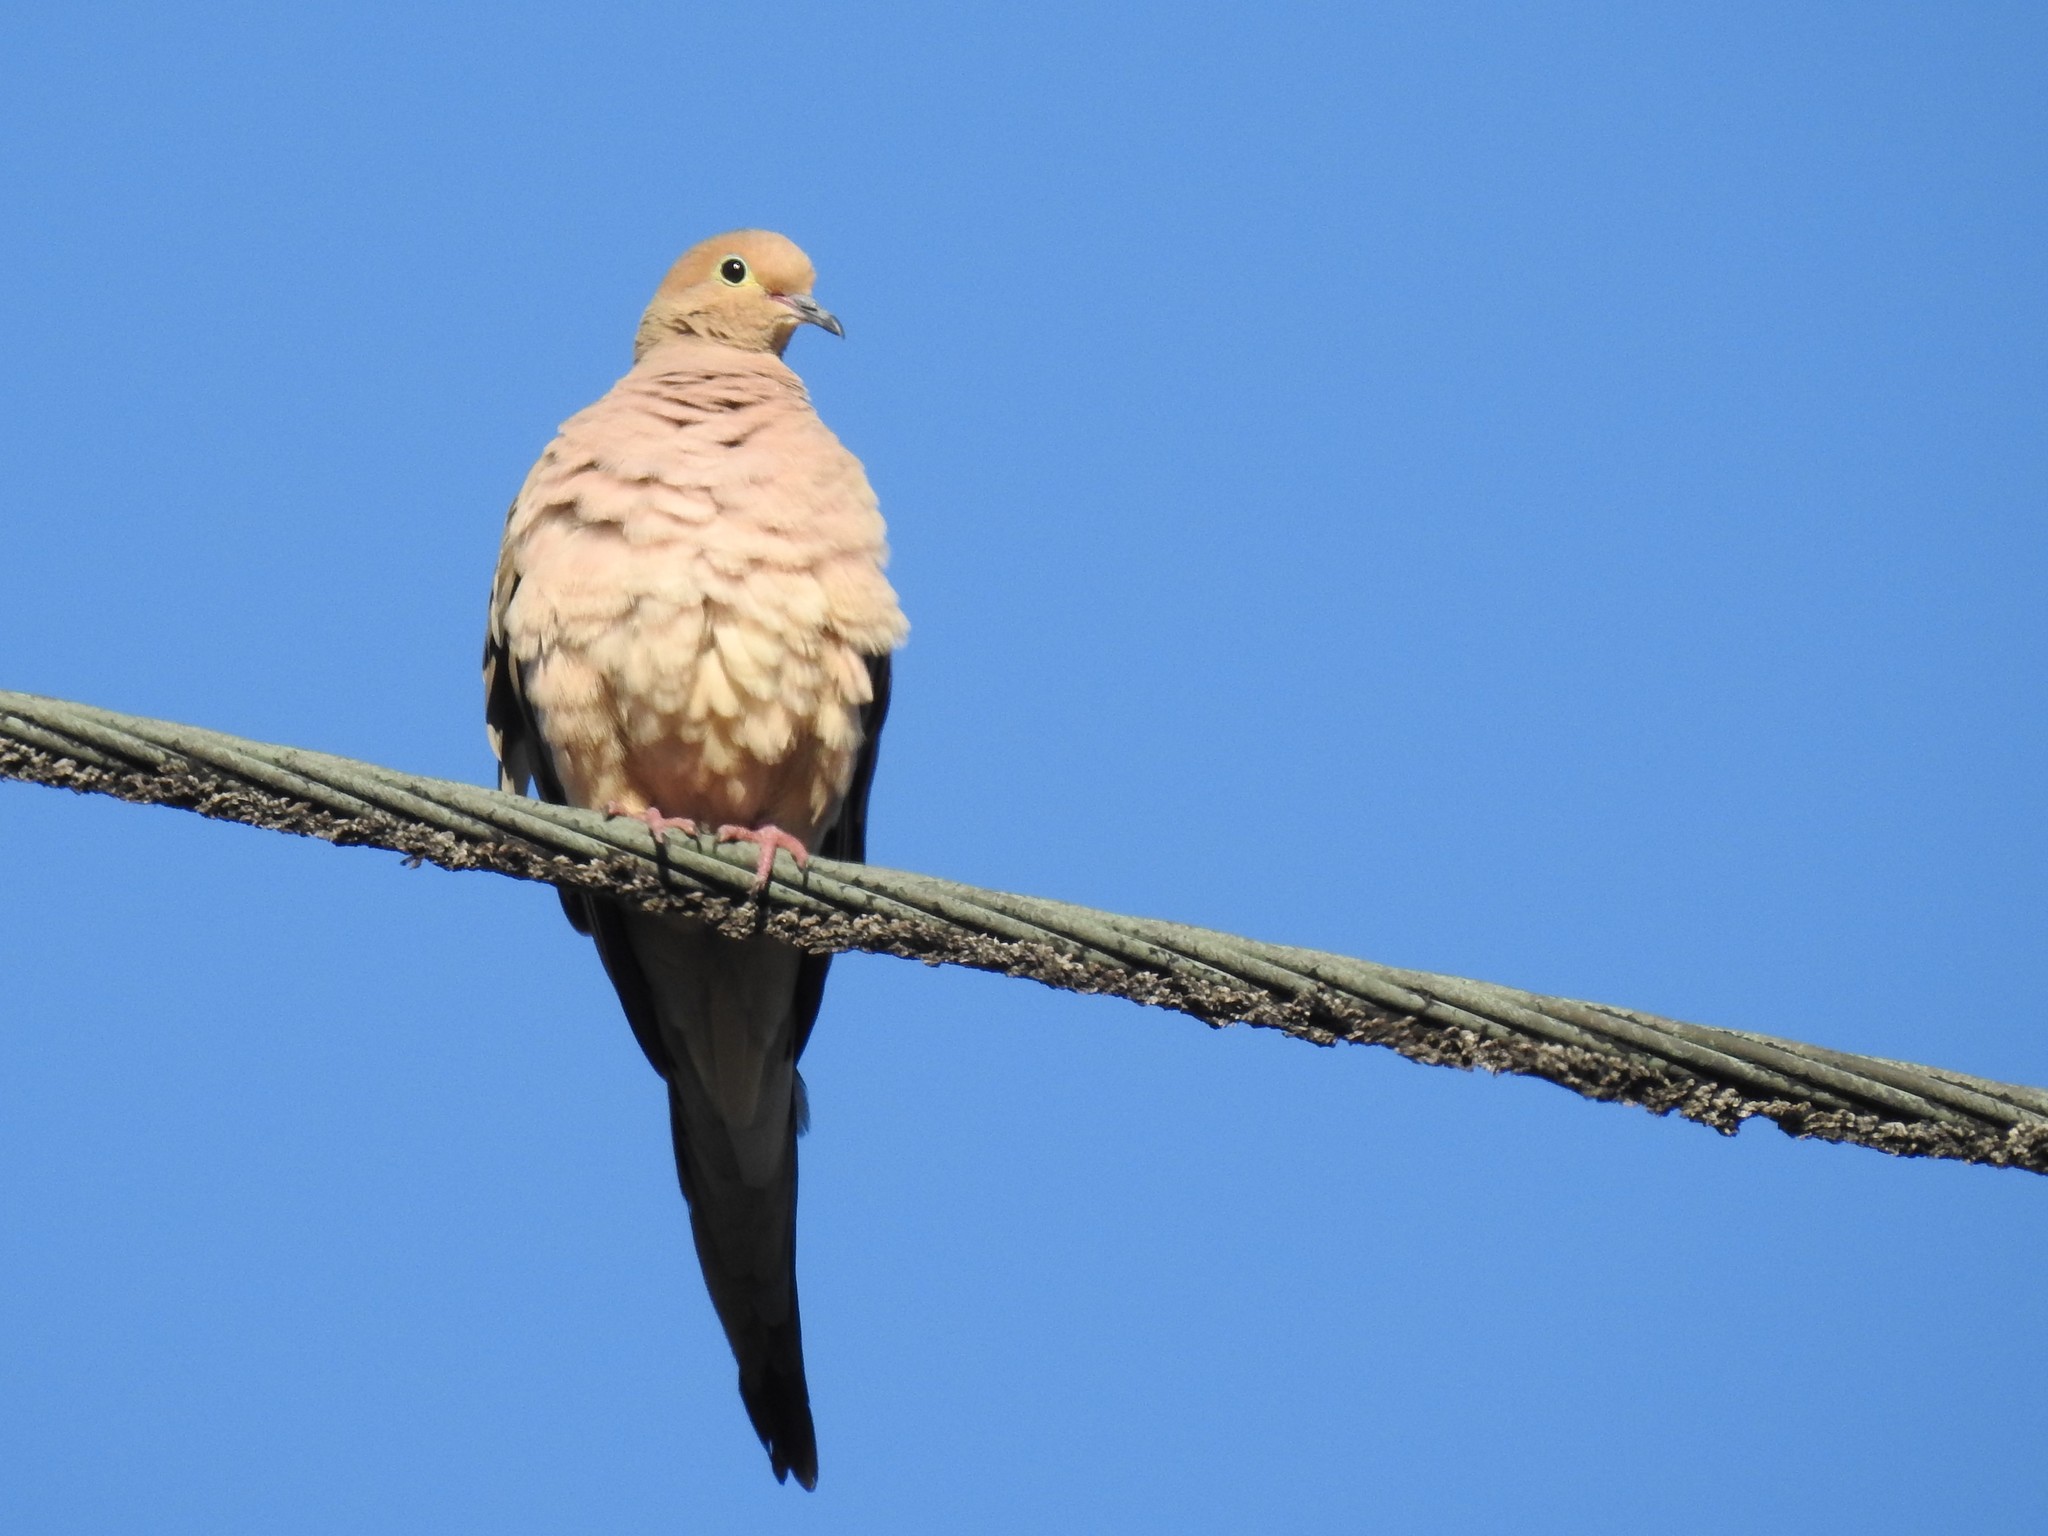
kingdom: Animalia
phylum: Chordata
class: Aves
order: Columbiformes
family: Columbidae
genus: Zenaida
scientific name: Zenaida macroura
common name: Mourning dove
